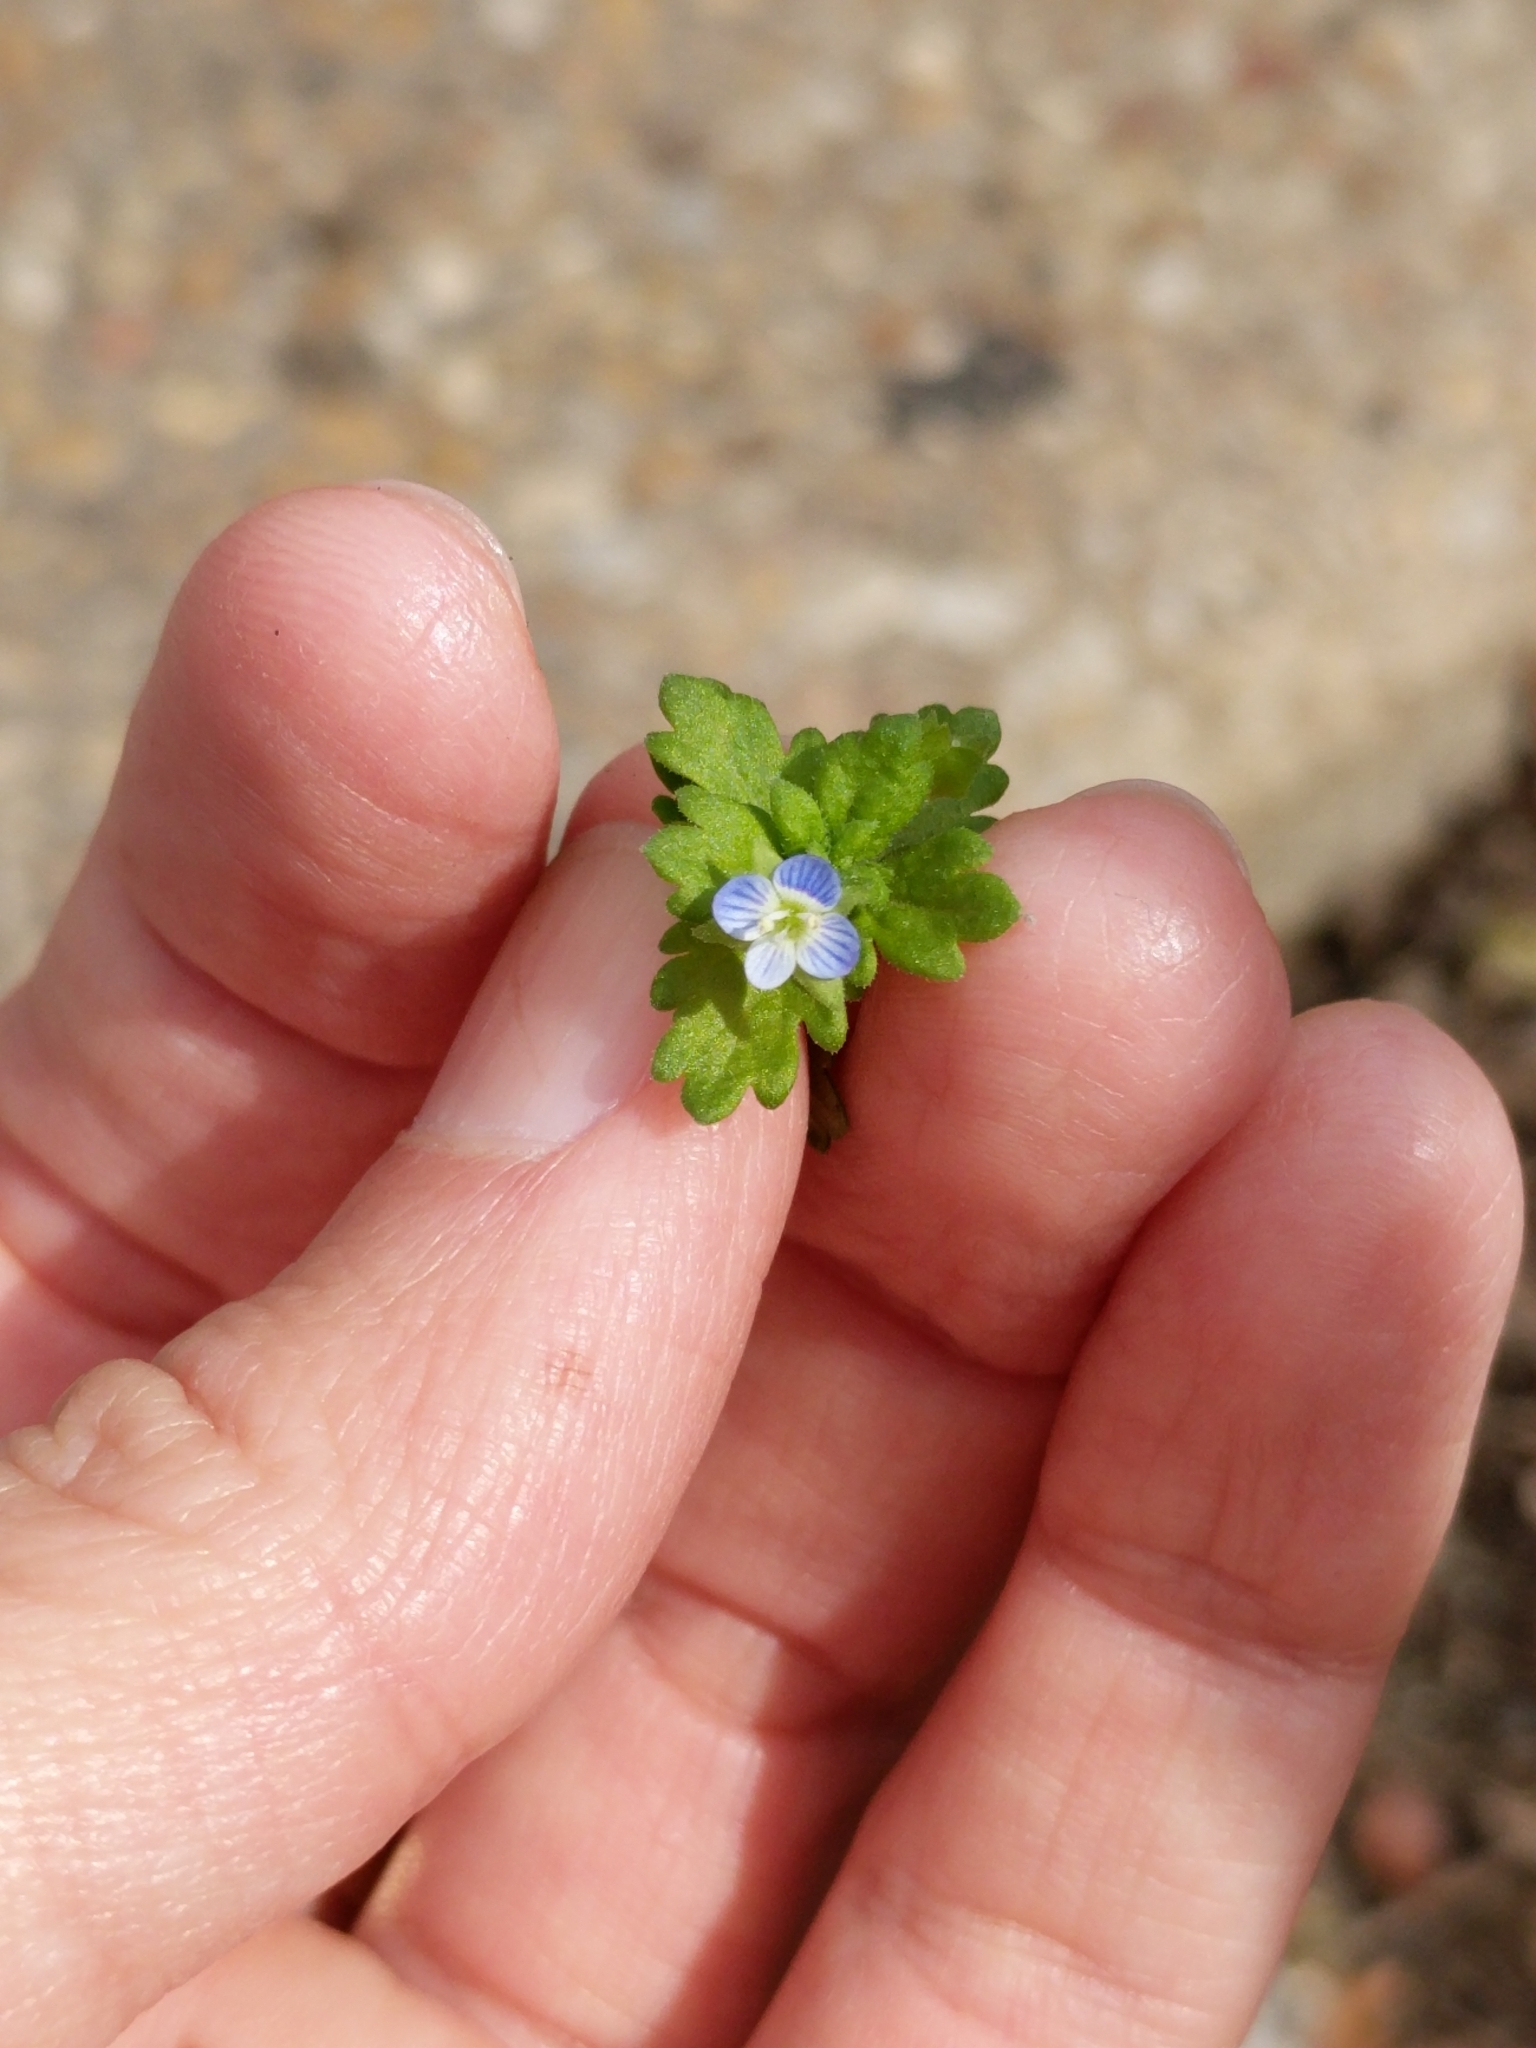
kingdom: Plantae
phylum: Tracheophyta
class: Magnoliopsida
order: Lamiales
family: Plantaginaceae
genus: Veronica
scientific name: Veronica polita
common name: Grey field-speedwell
